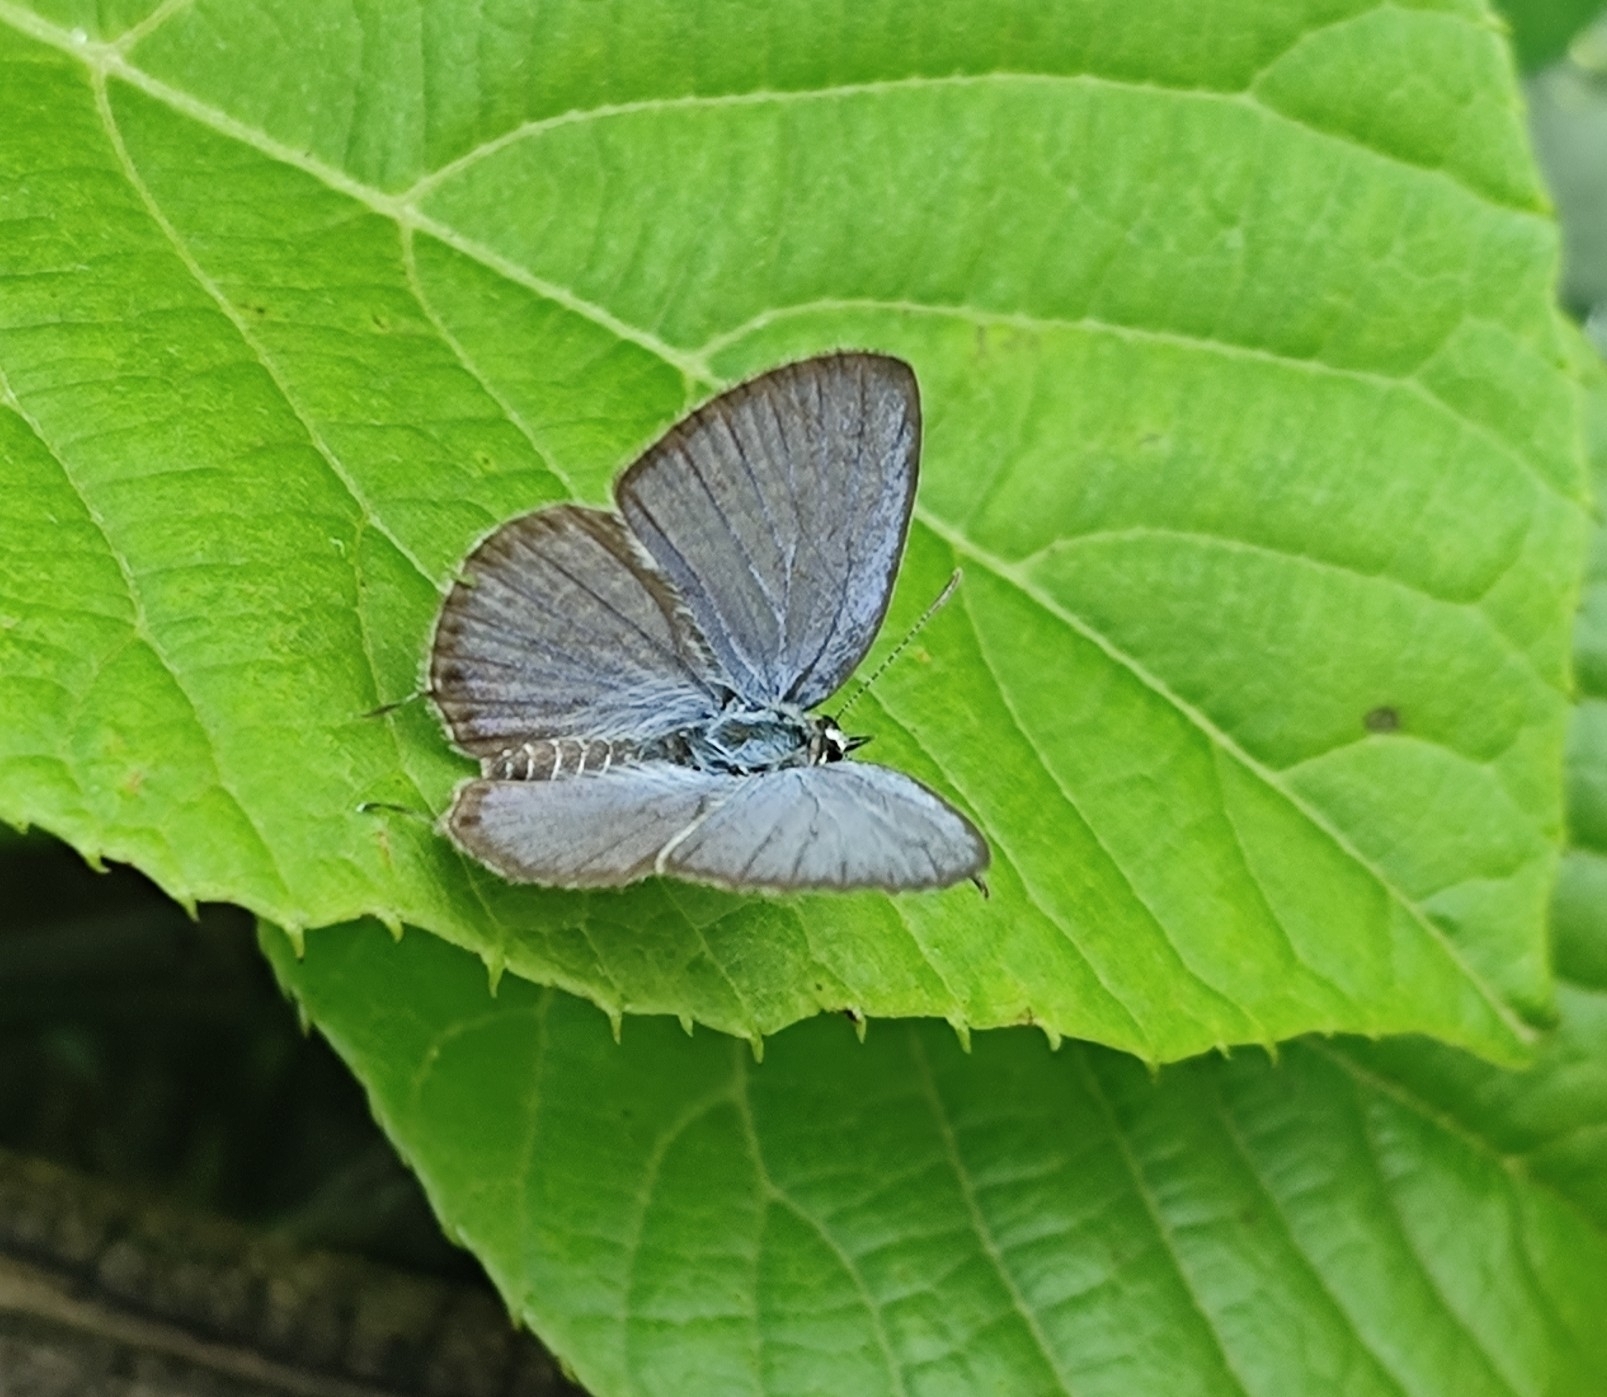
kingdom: Animalia
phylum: Arthropoda
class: Insecta
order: Lepidoptera
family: Lycaenidae
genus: Luthrodes
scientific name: Luthrodes pandava
